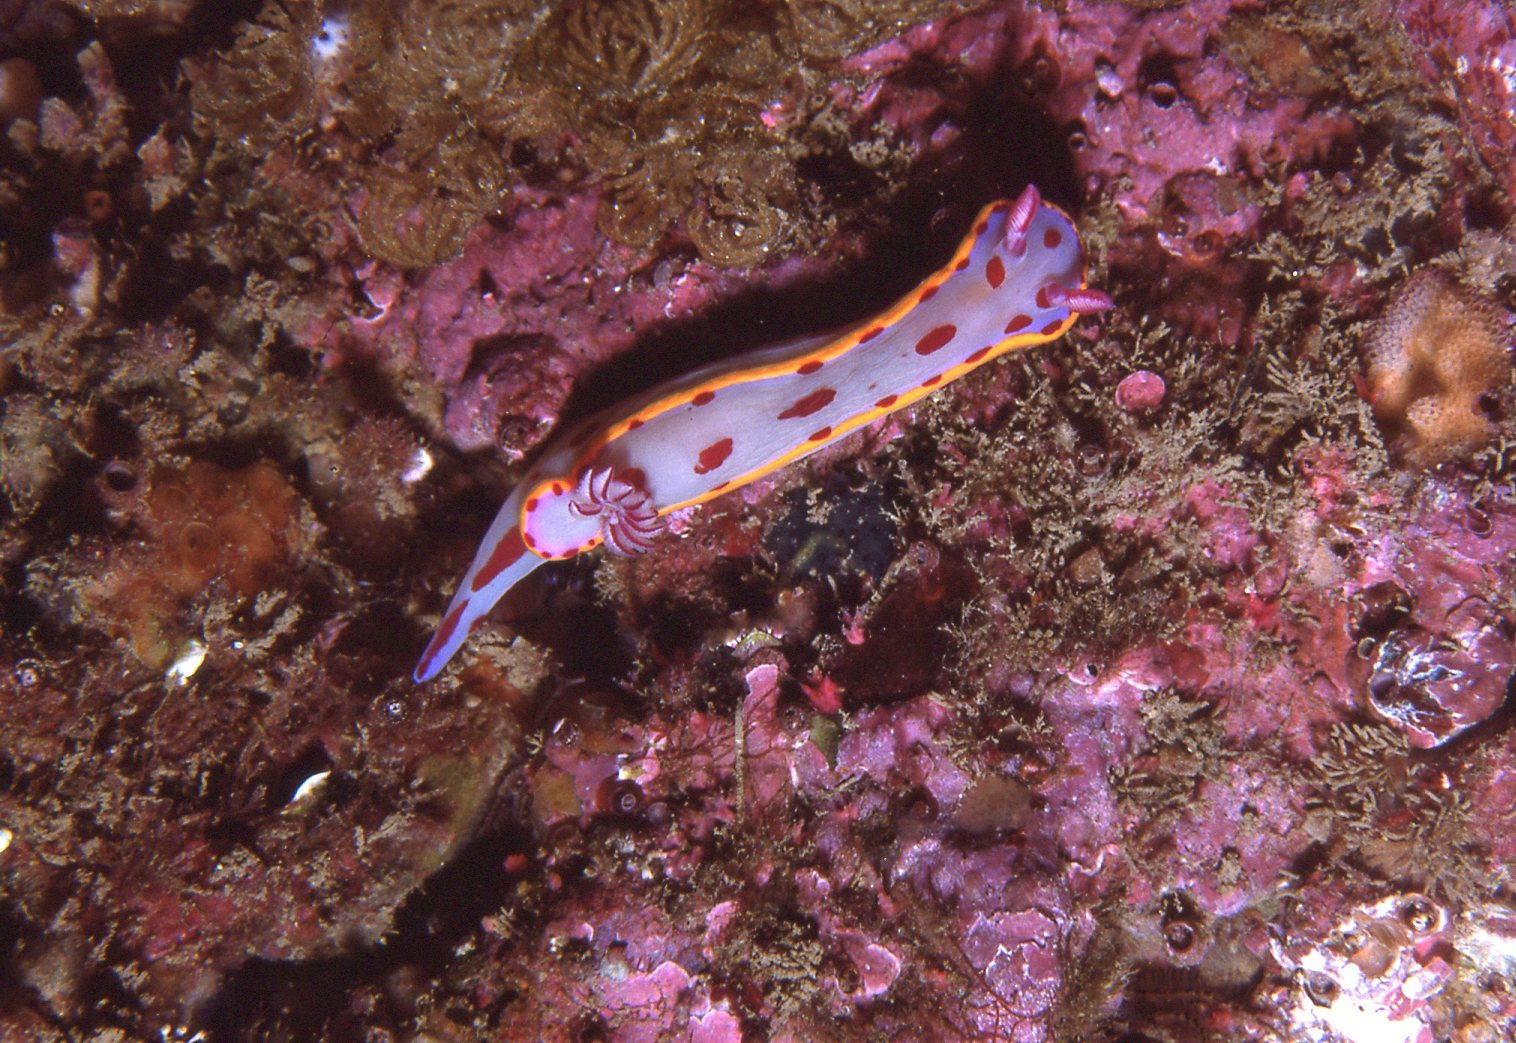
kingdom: Animalia
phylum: Mollusca
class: Gastropoda
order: Nudibranchia
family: Chromodorididae
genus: Hypselodoris
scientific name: Hypselodoris bennetti
